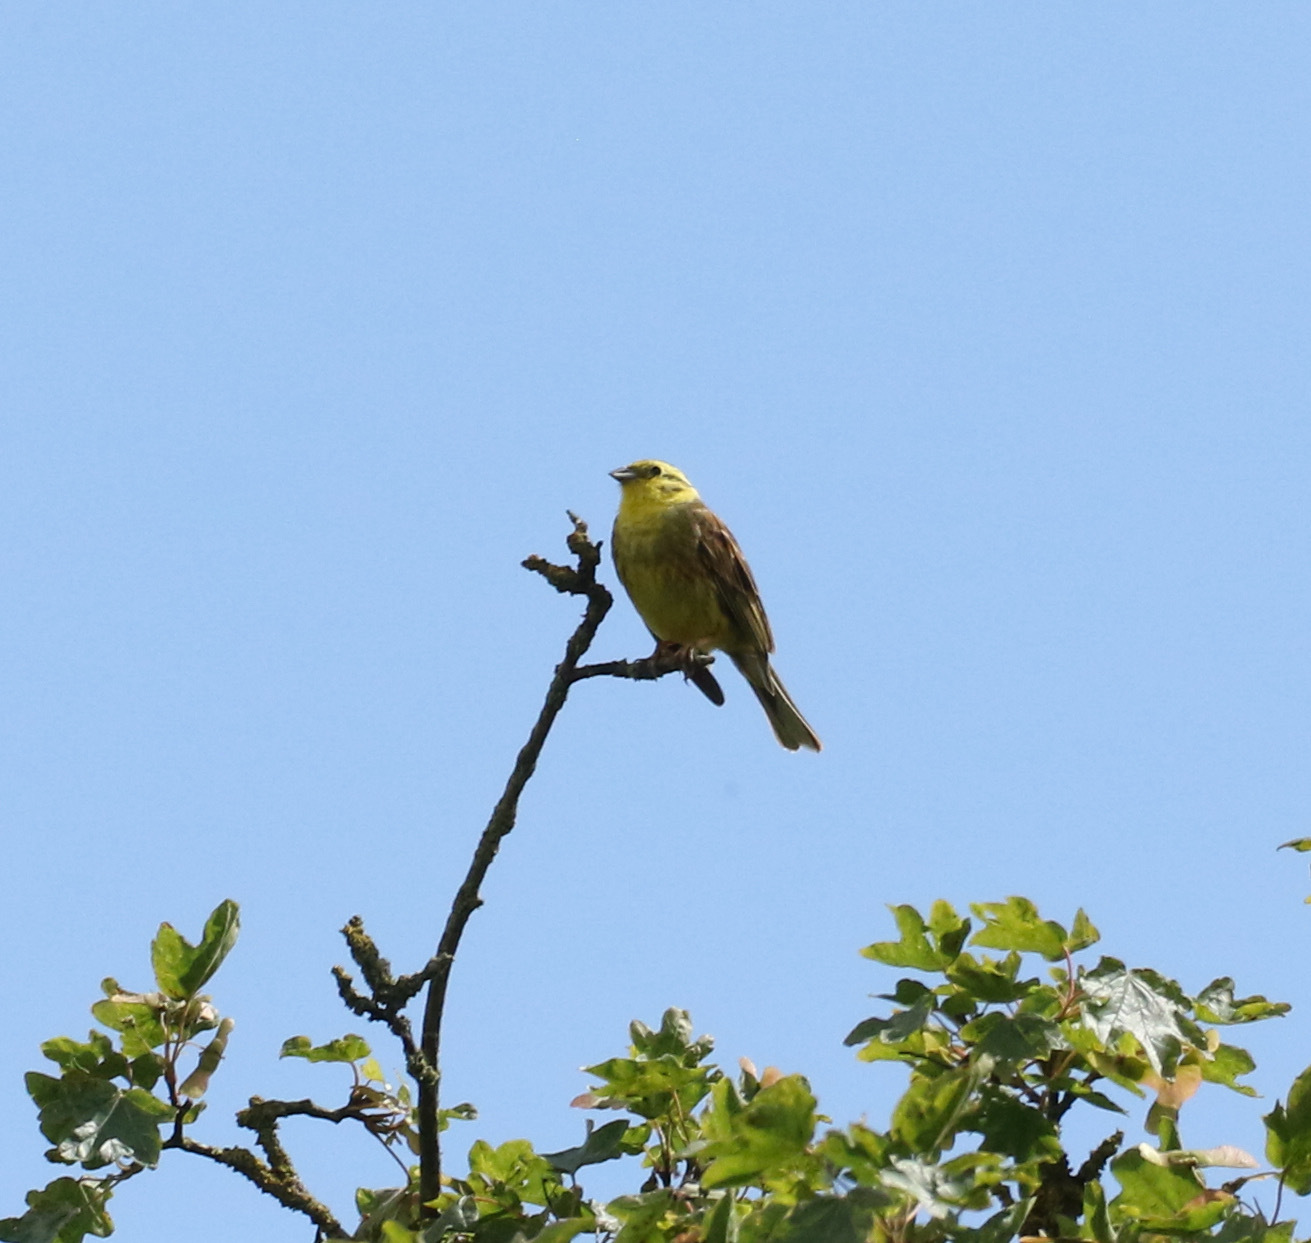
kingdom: Animalia
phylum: Chordata
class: Aves
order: Passeriformes
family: Emberizidae
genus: Emberiza
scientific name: Emberiza citrinella
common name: Yellowhammer
